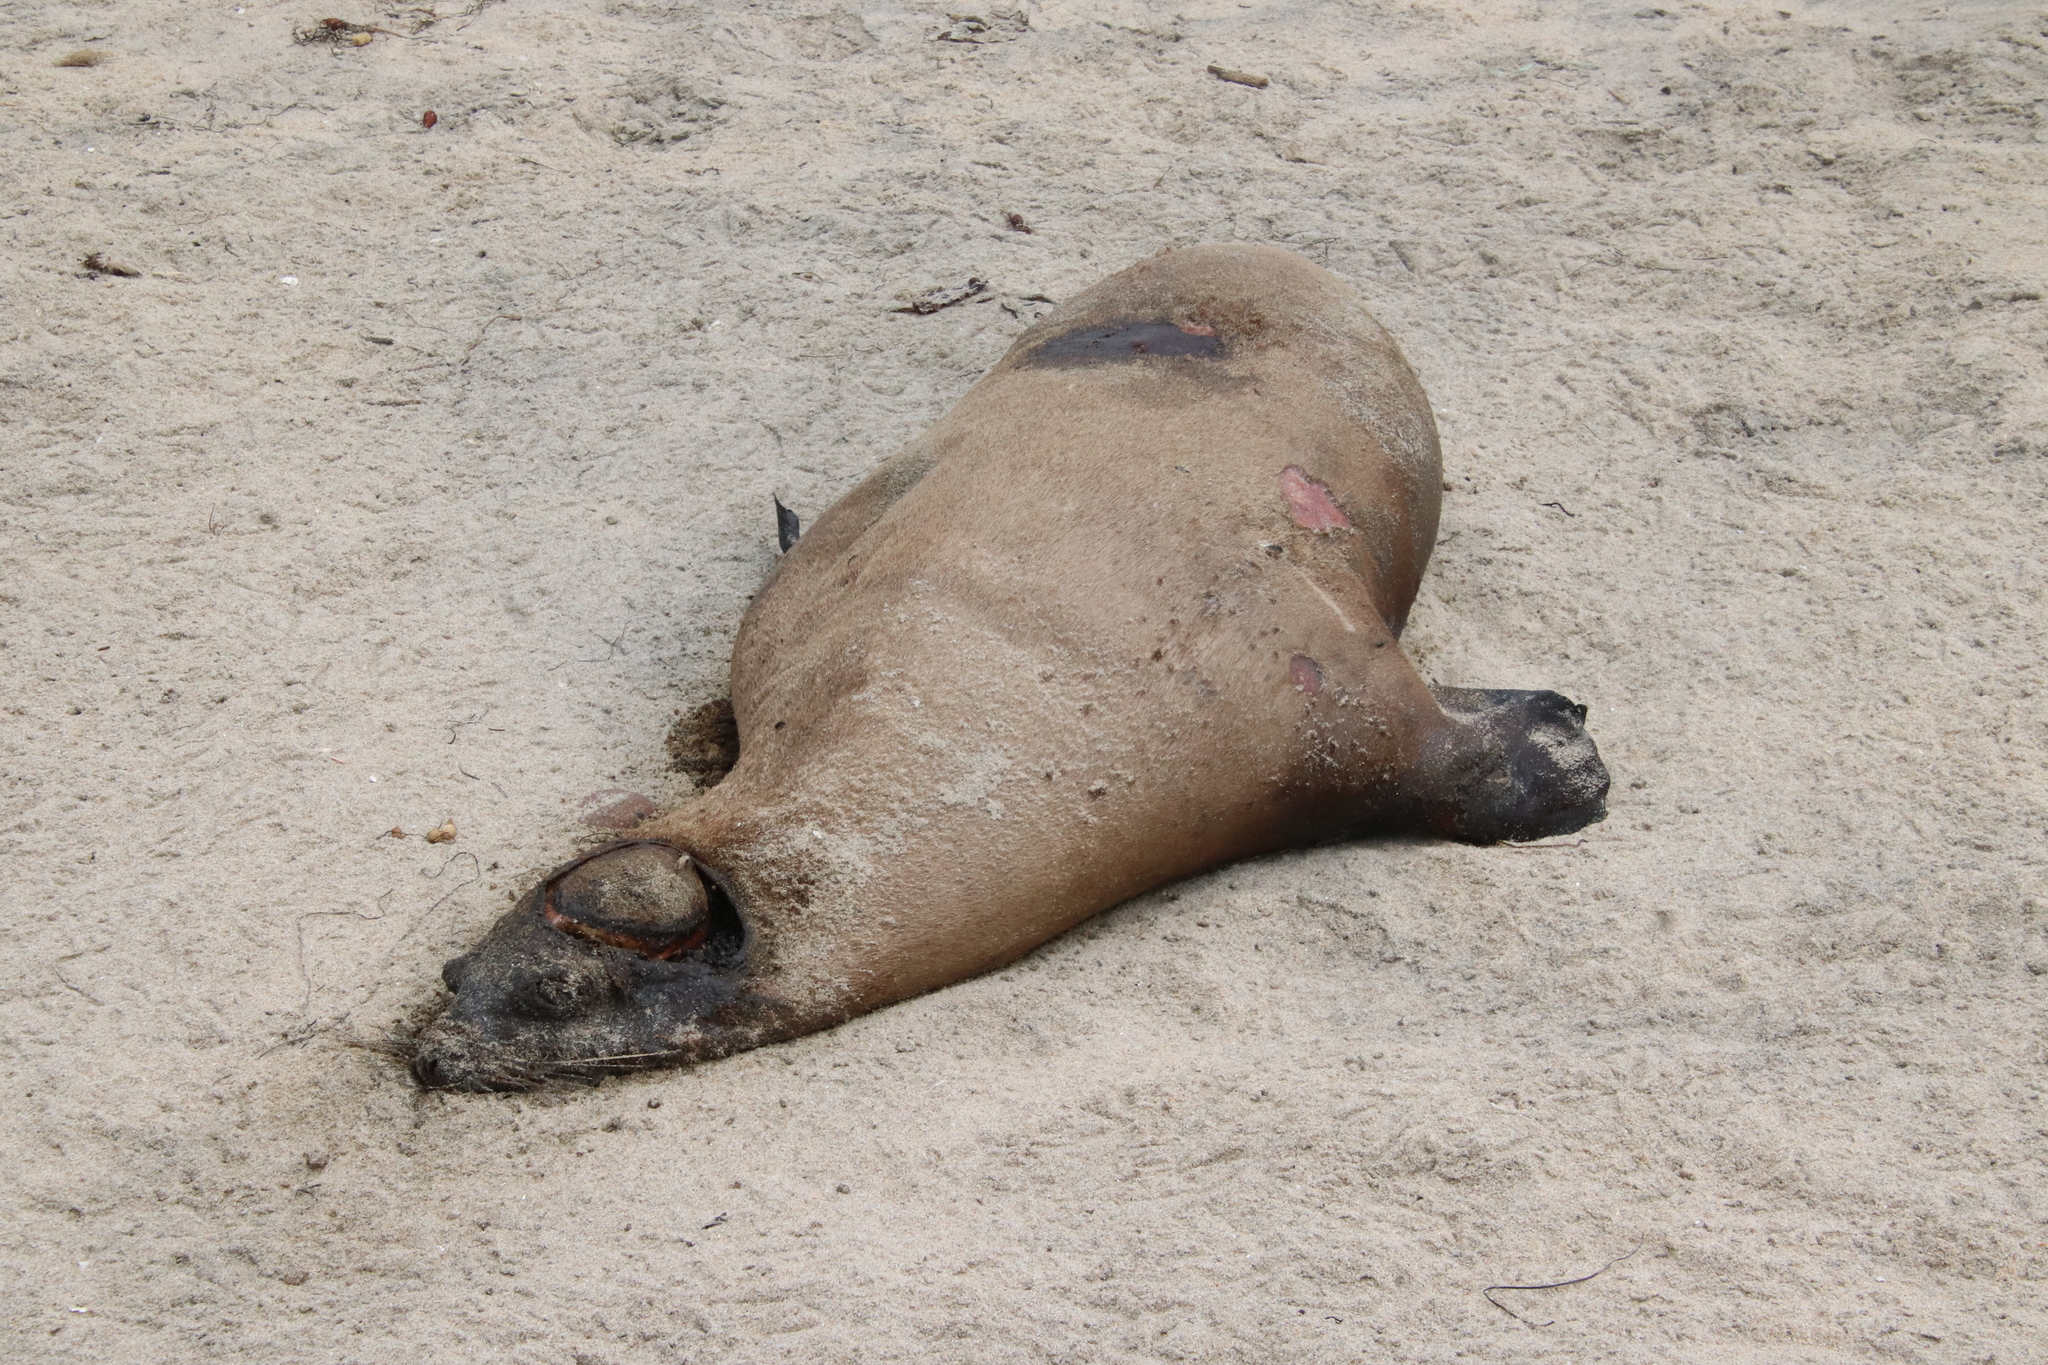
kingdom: Animalia
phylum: Chordata
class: Mammalia
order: Carnivora
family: Otariidae
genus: Zalophus
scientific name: Zalophus californianus
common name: California sea lion
